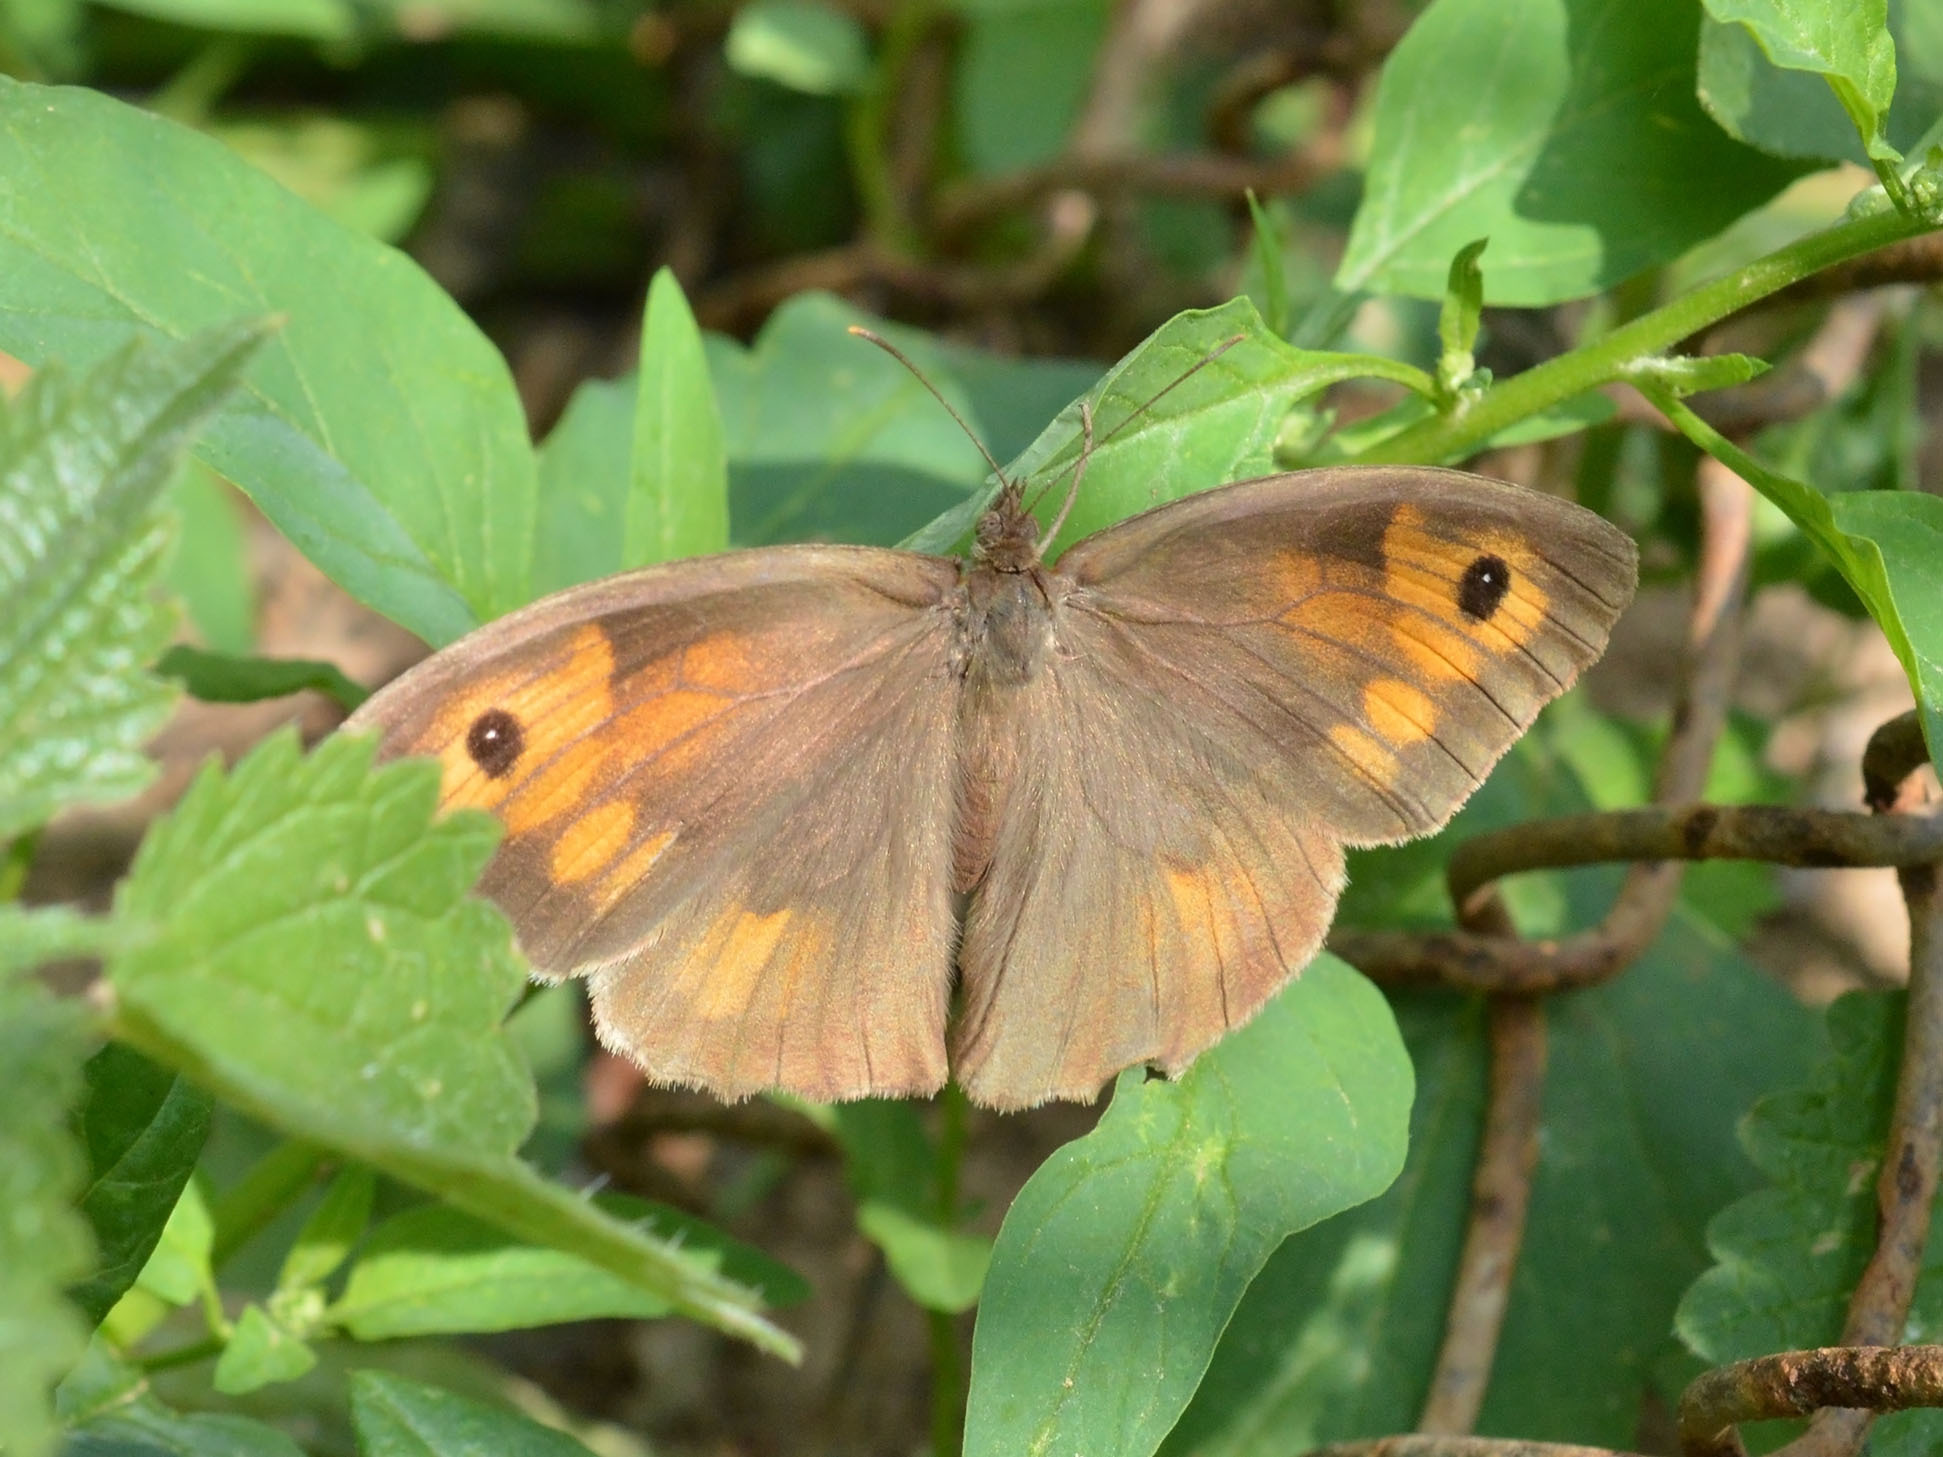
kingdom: Animalia
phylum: Arthropoda
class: Insecta
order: Lepidoptera
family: Nymphalidae
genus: Maniola
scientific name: Maniola jurtina
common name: Meadow brown
